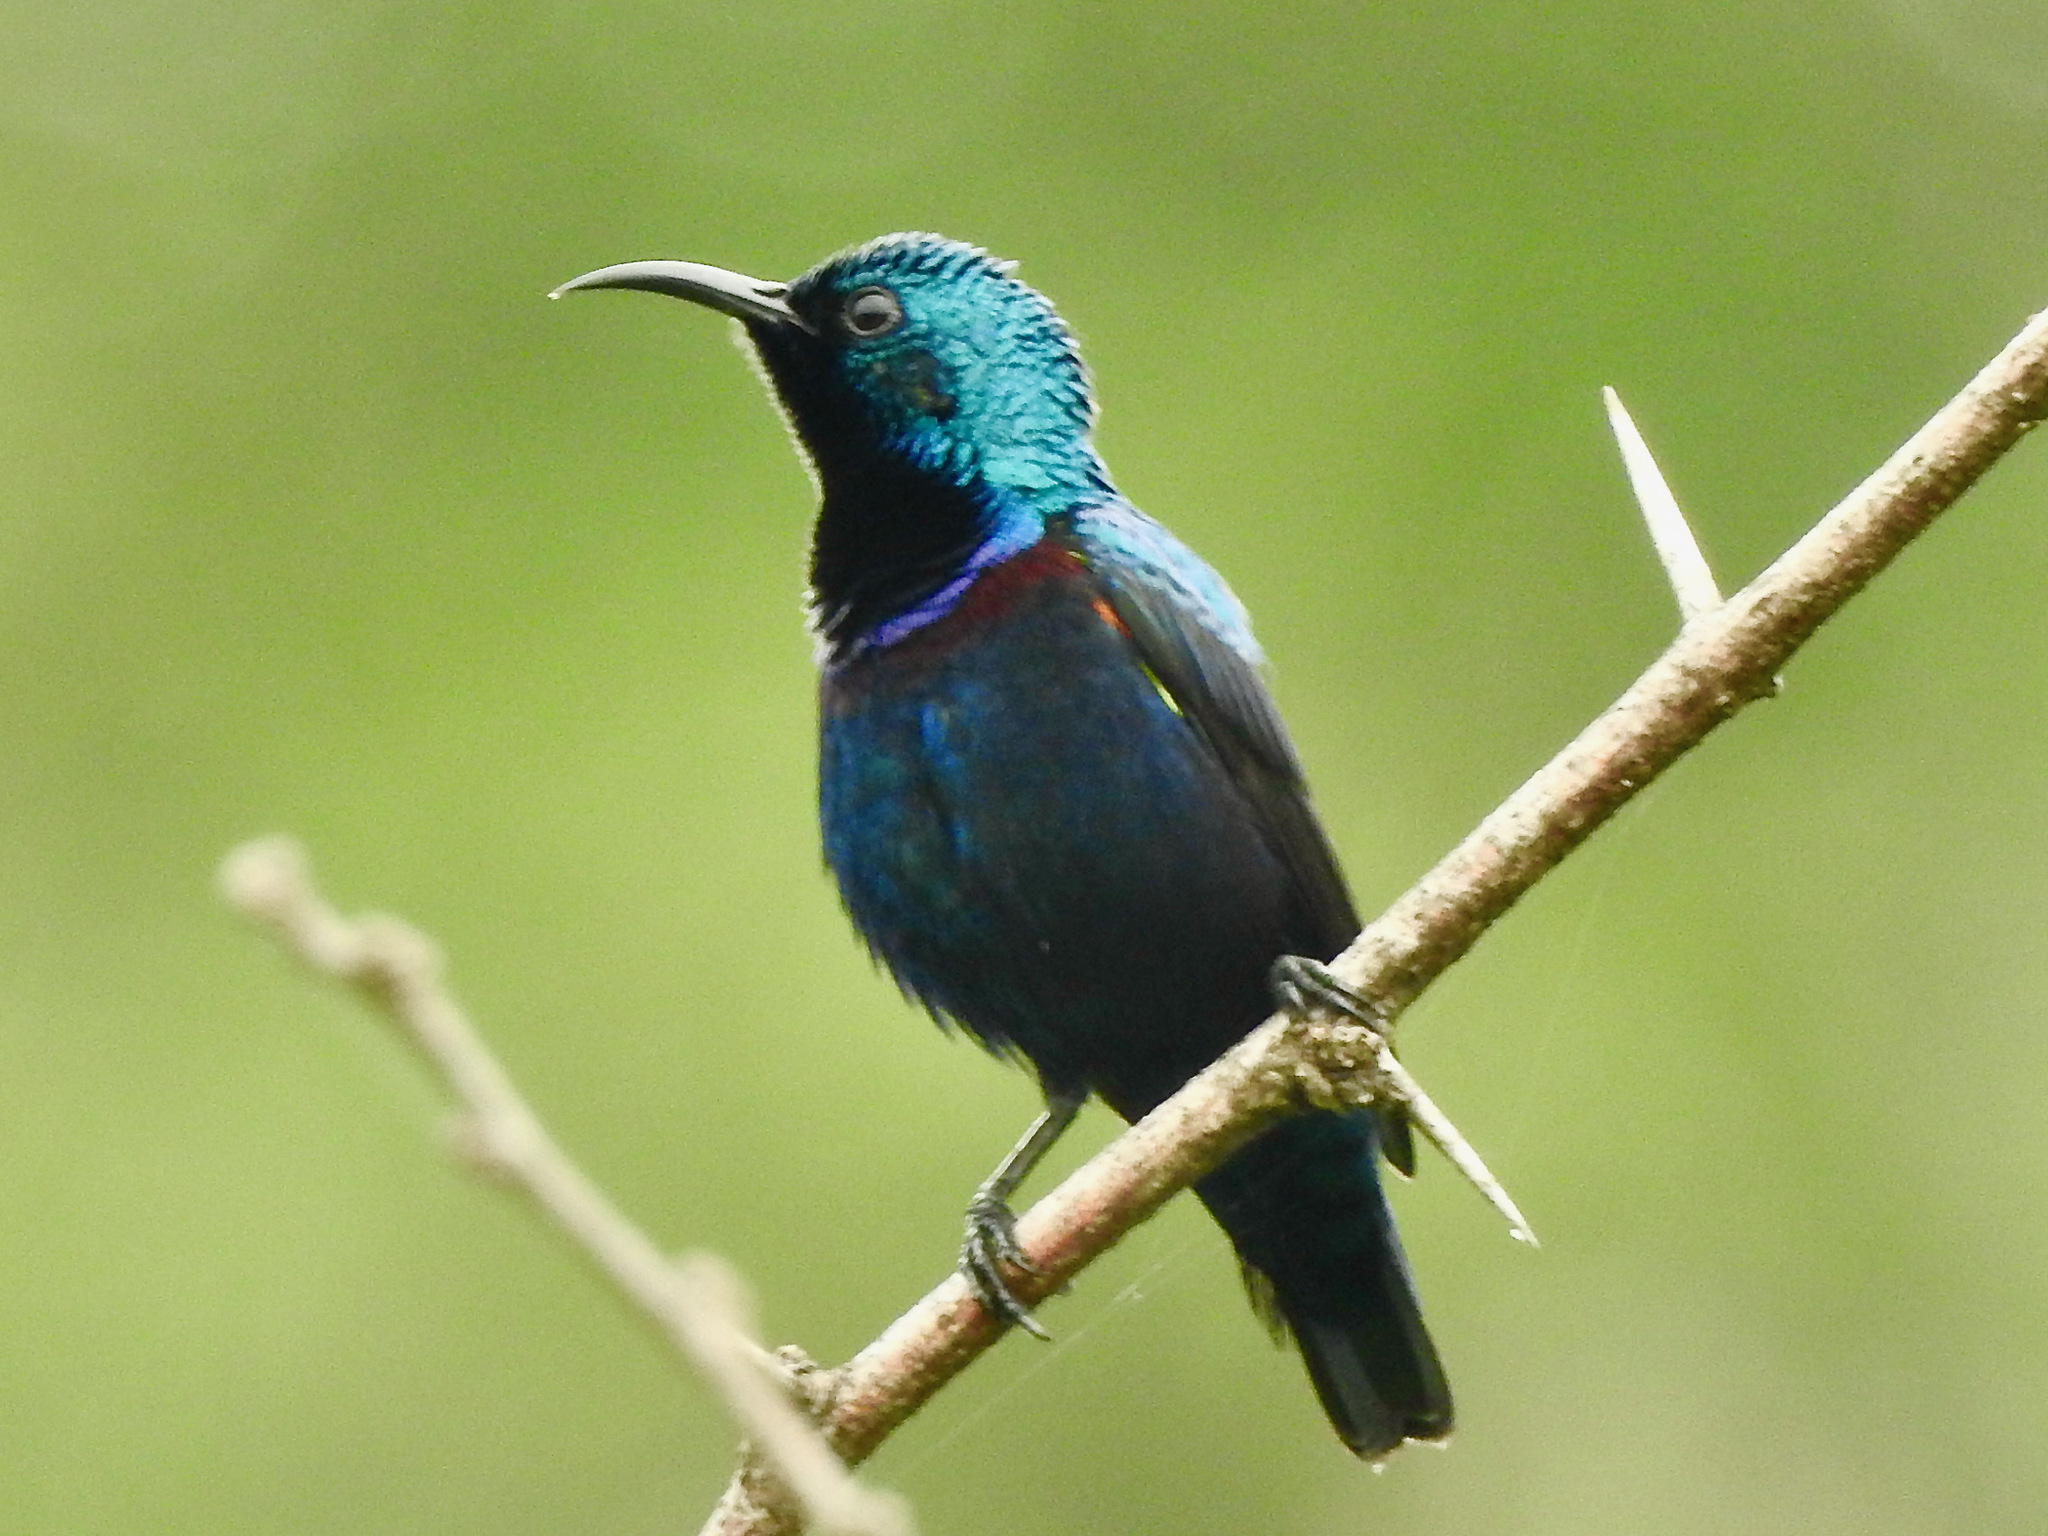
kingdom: Animalia
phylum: Chordata
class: Aves
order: Passeriformes
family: Nectariniidae
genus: Cinnyris
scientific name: Cinnyris asiaticus
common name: Purple sunbird
